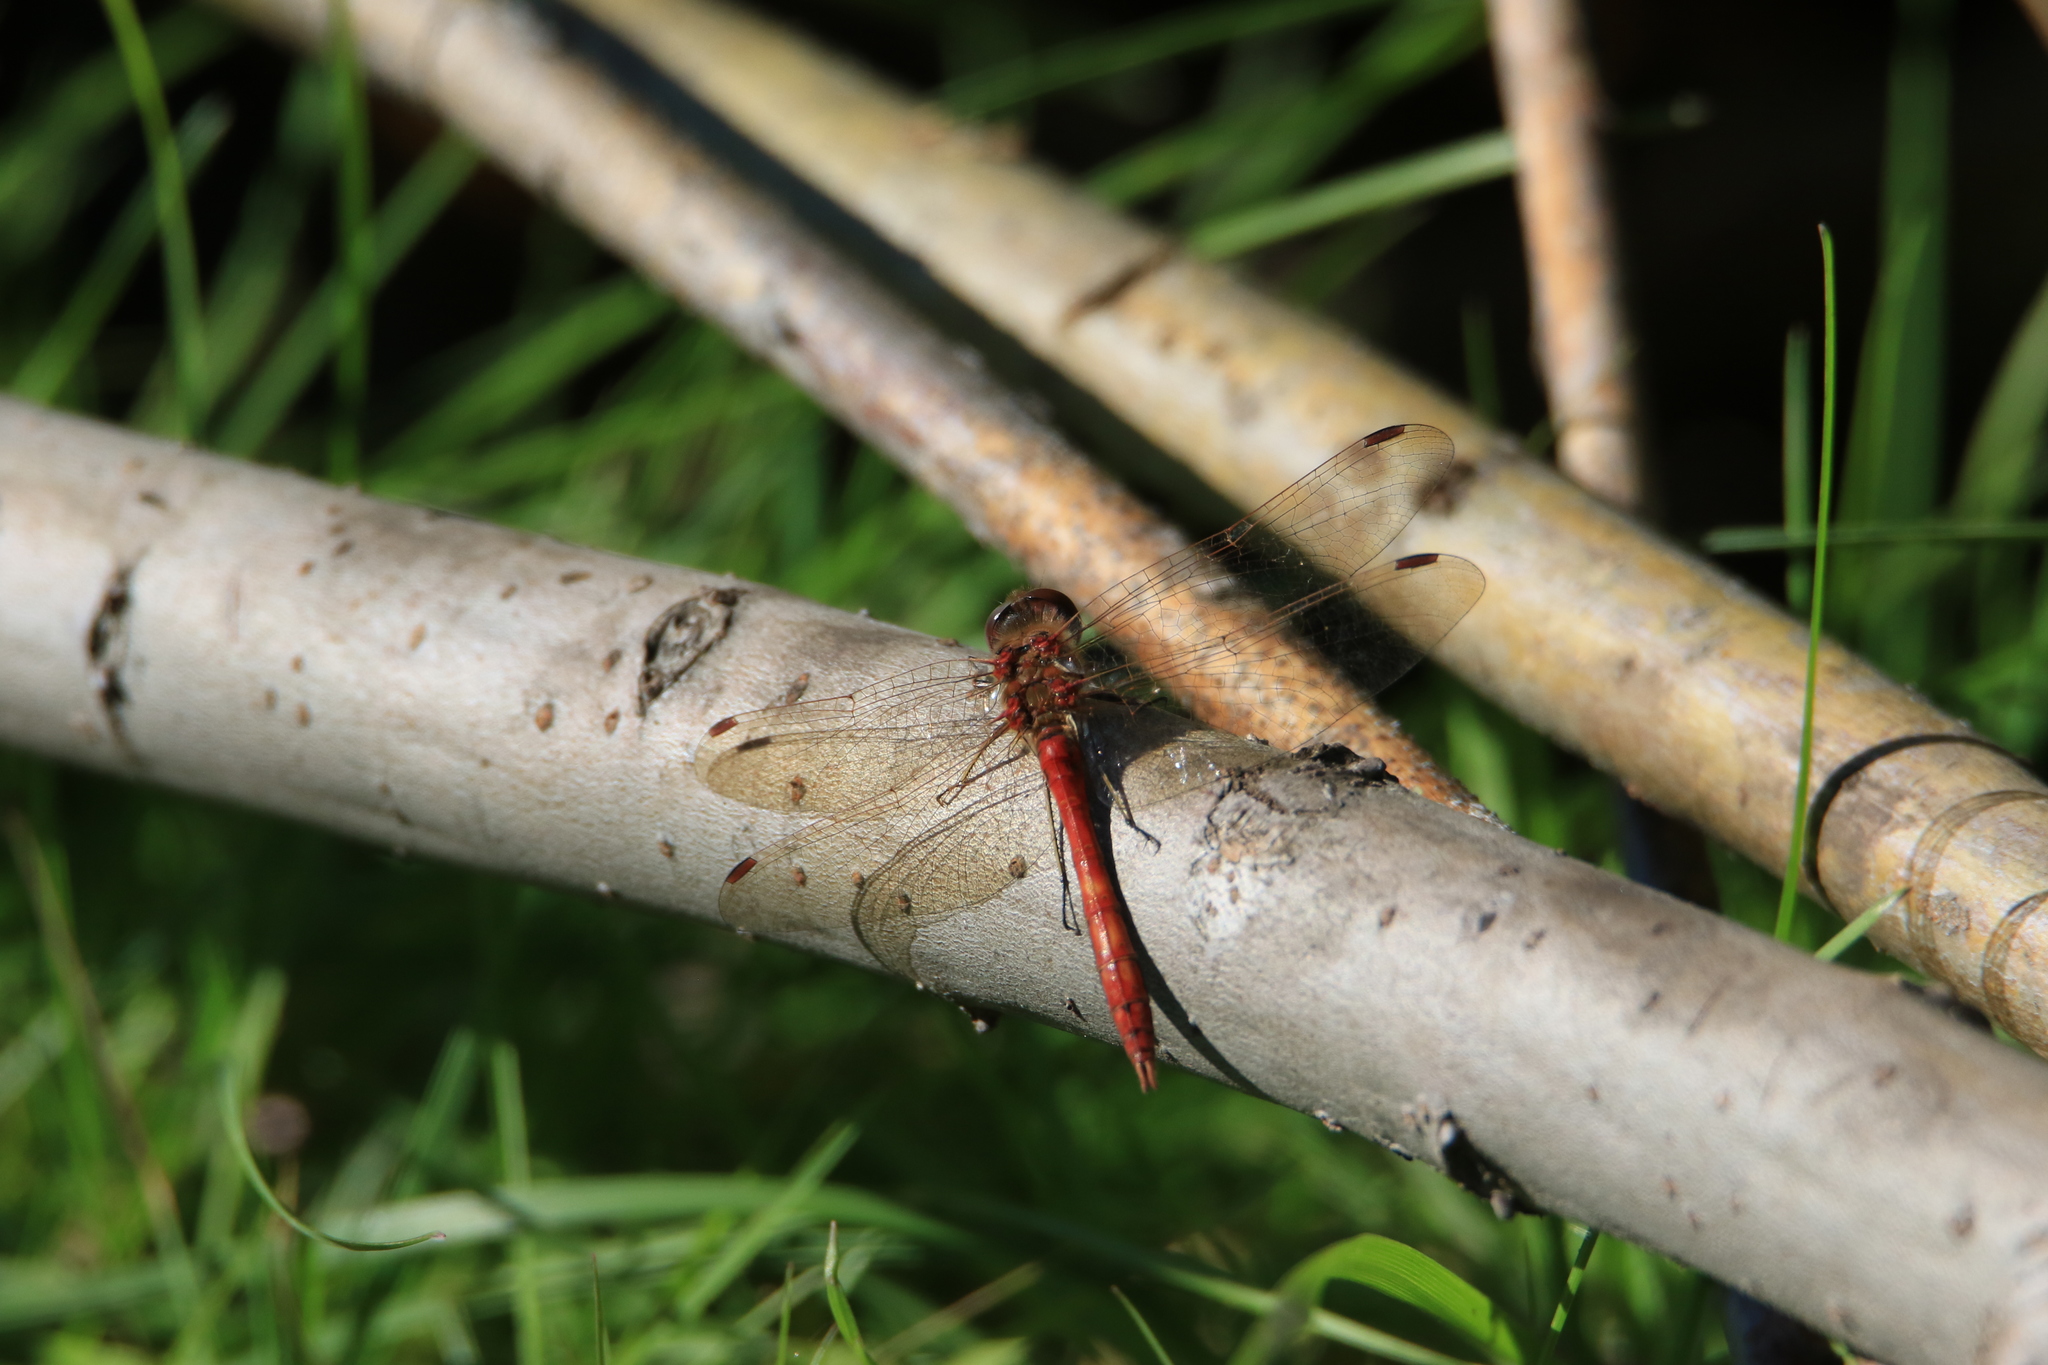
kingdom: Animalia
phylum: Arthropoda
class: Insecta
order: Odonata
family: Libellulidae
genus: Sympetrum
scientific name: Sympetrum vulgatum
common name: Vagrant darter
